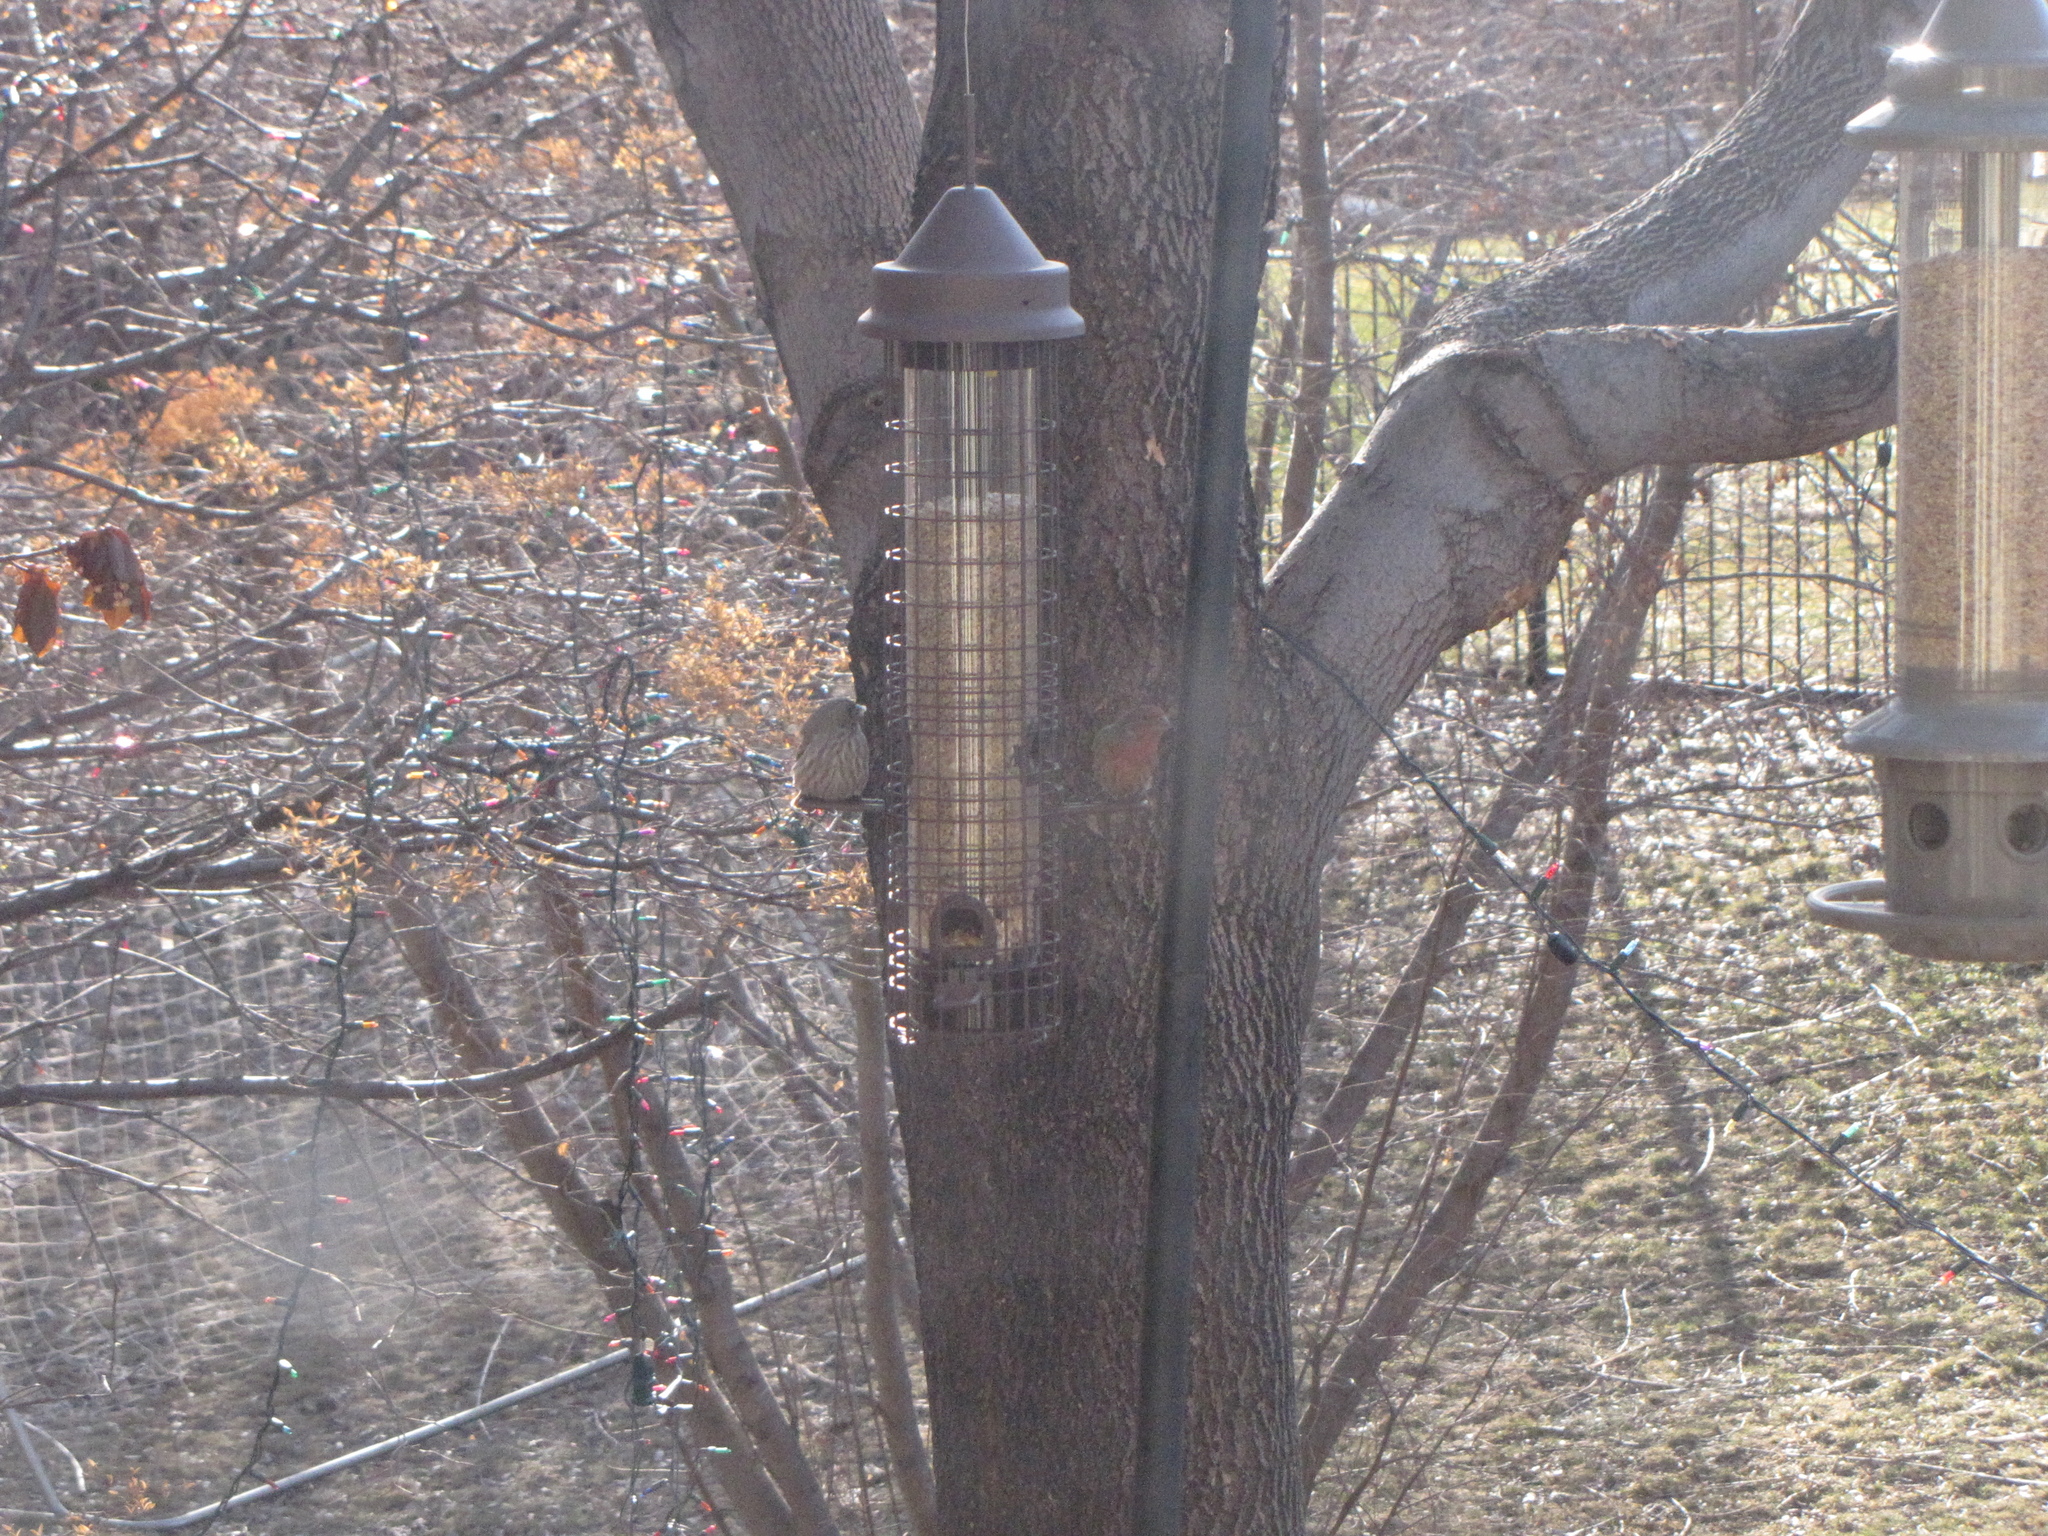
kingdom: Animalia
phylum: Chordata
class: Aves
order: Passeriformes
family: Fringillidae
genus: Haemorhous
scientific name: Haemorhous mexicanus
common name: House finch
